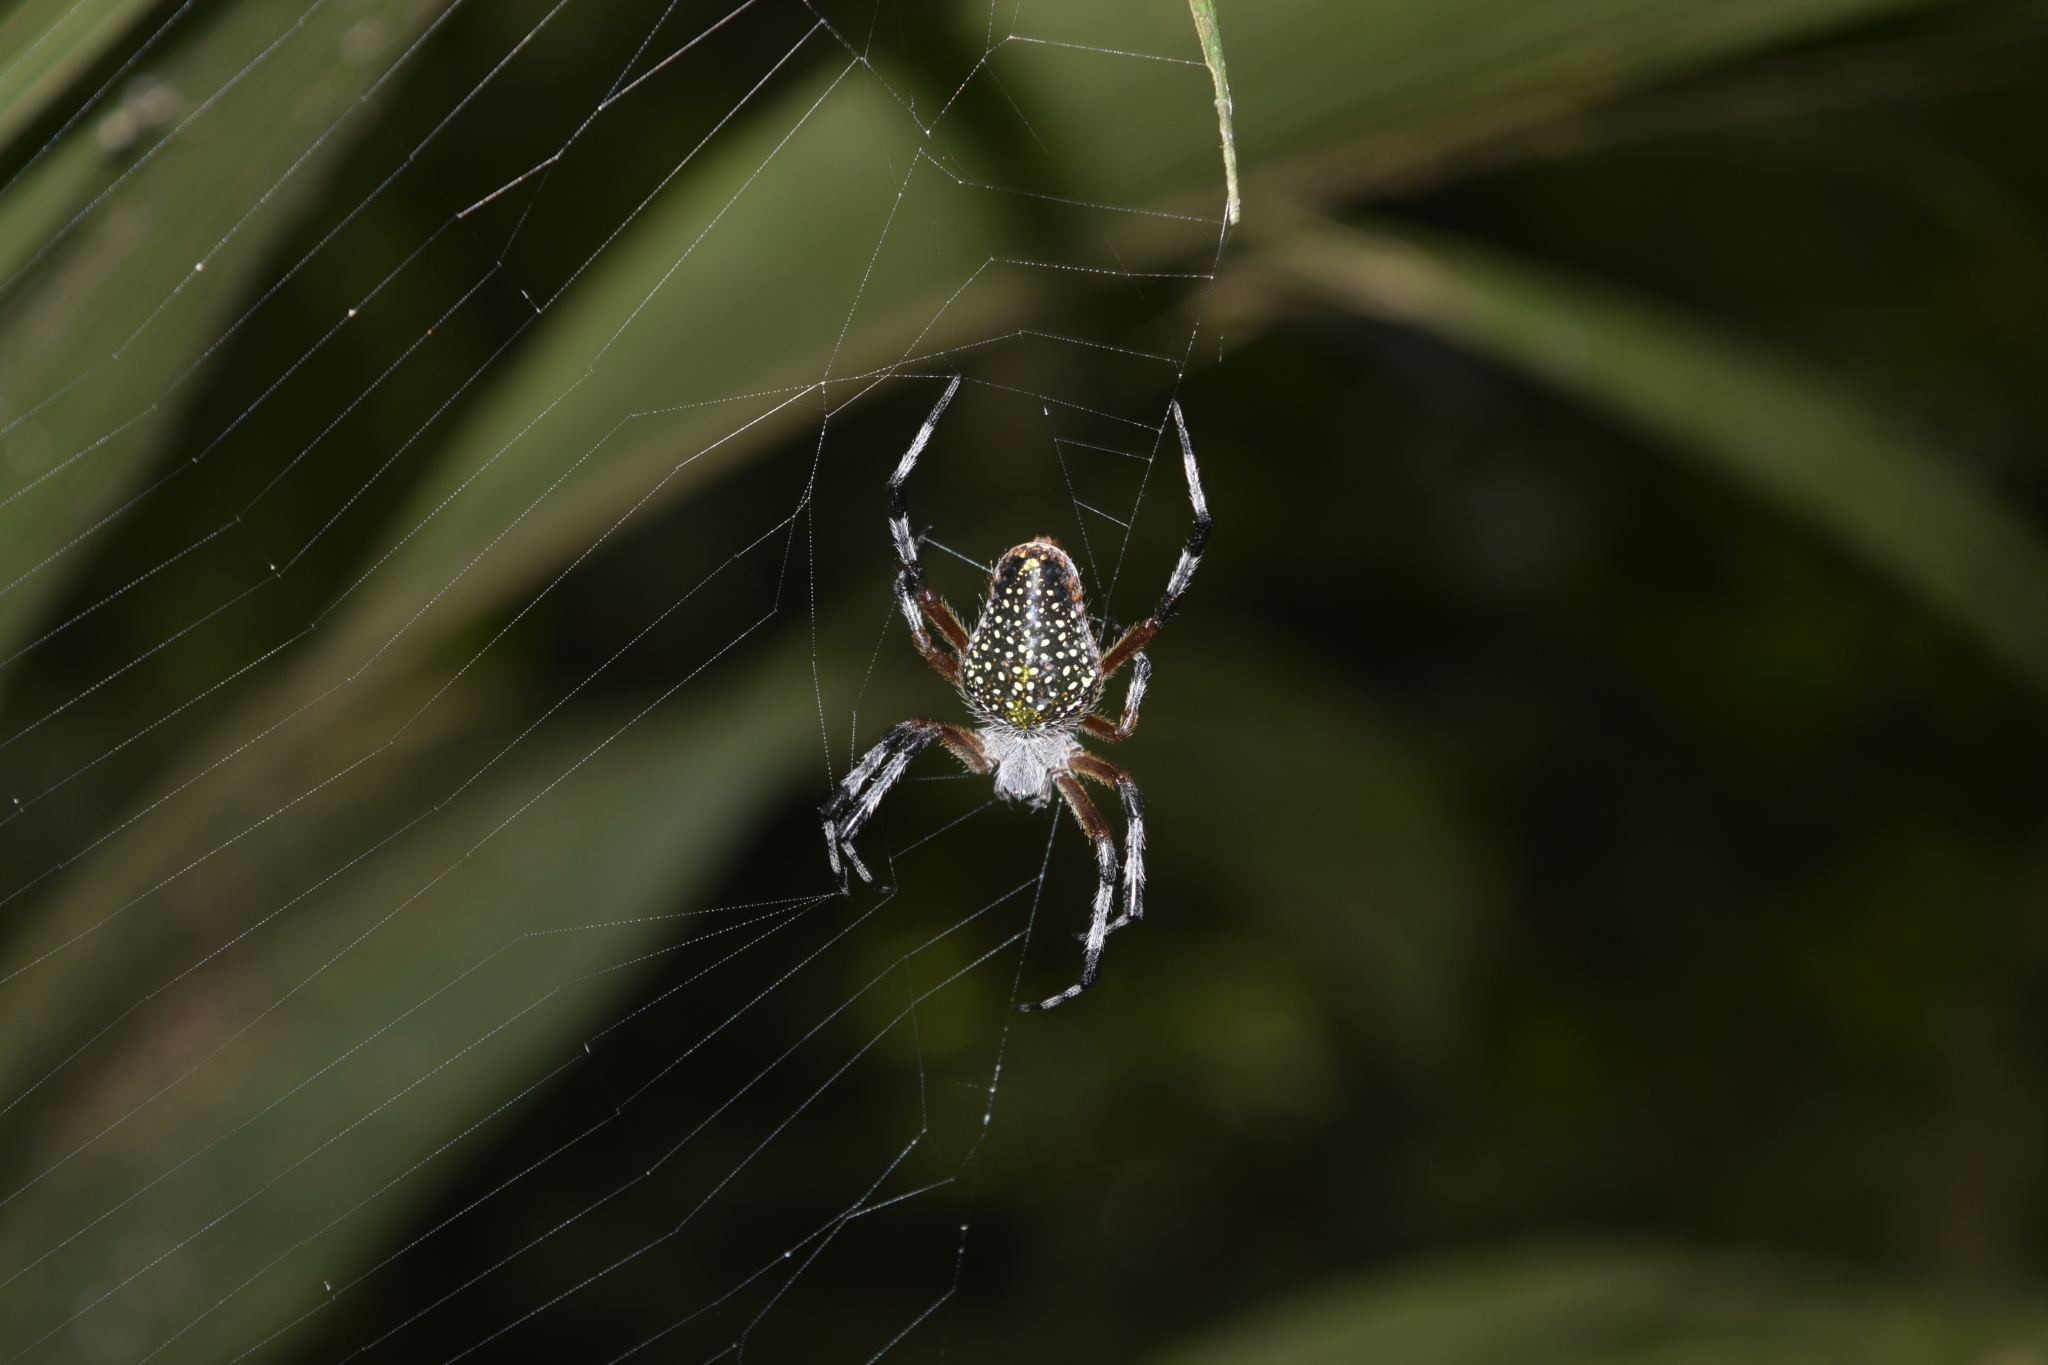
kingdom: Animalia
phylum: Arthropoda
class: Arachnida
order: Araneae
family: Araneidae
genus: Eriophora
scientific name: Eriophora nephiloides
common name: Orb weavers
